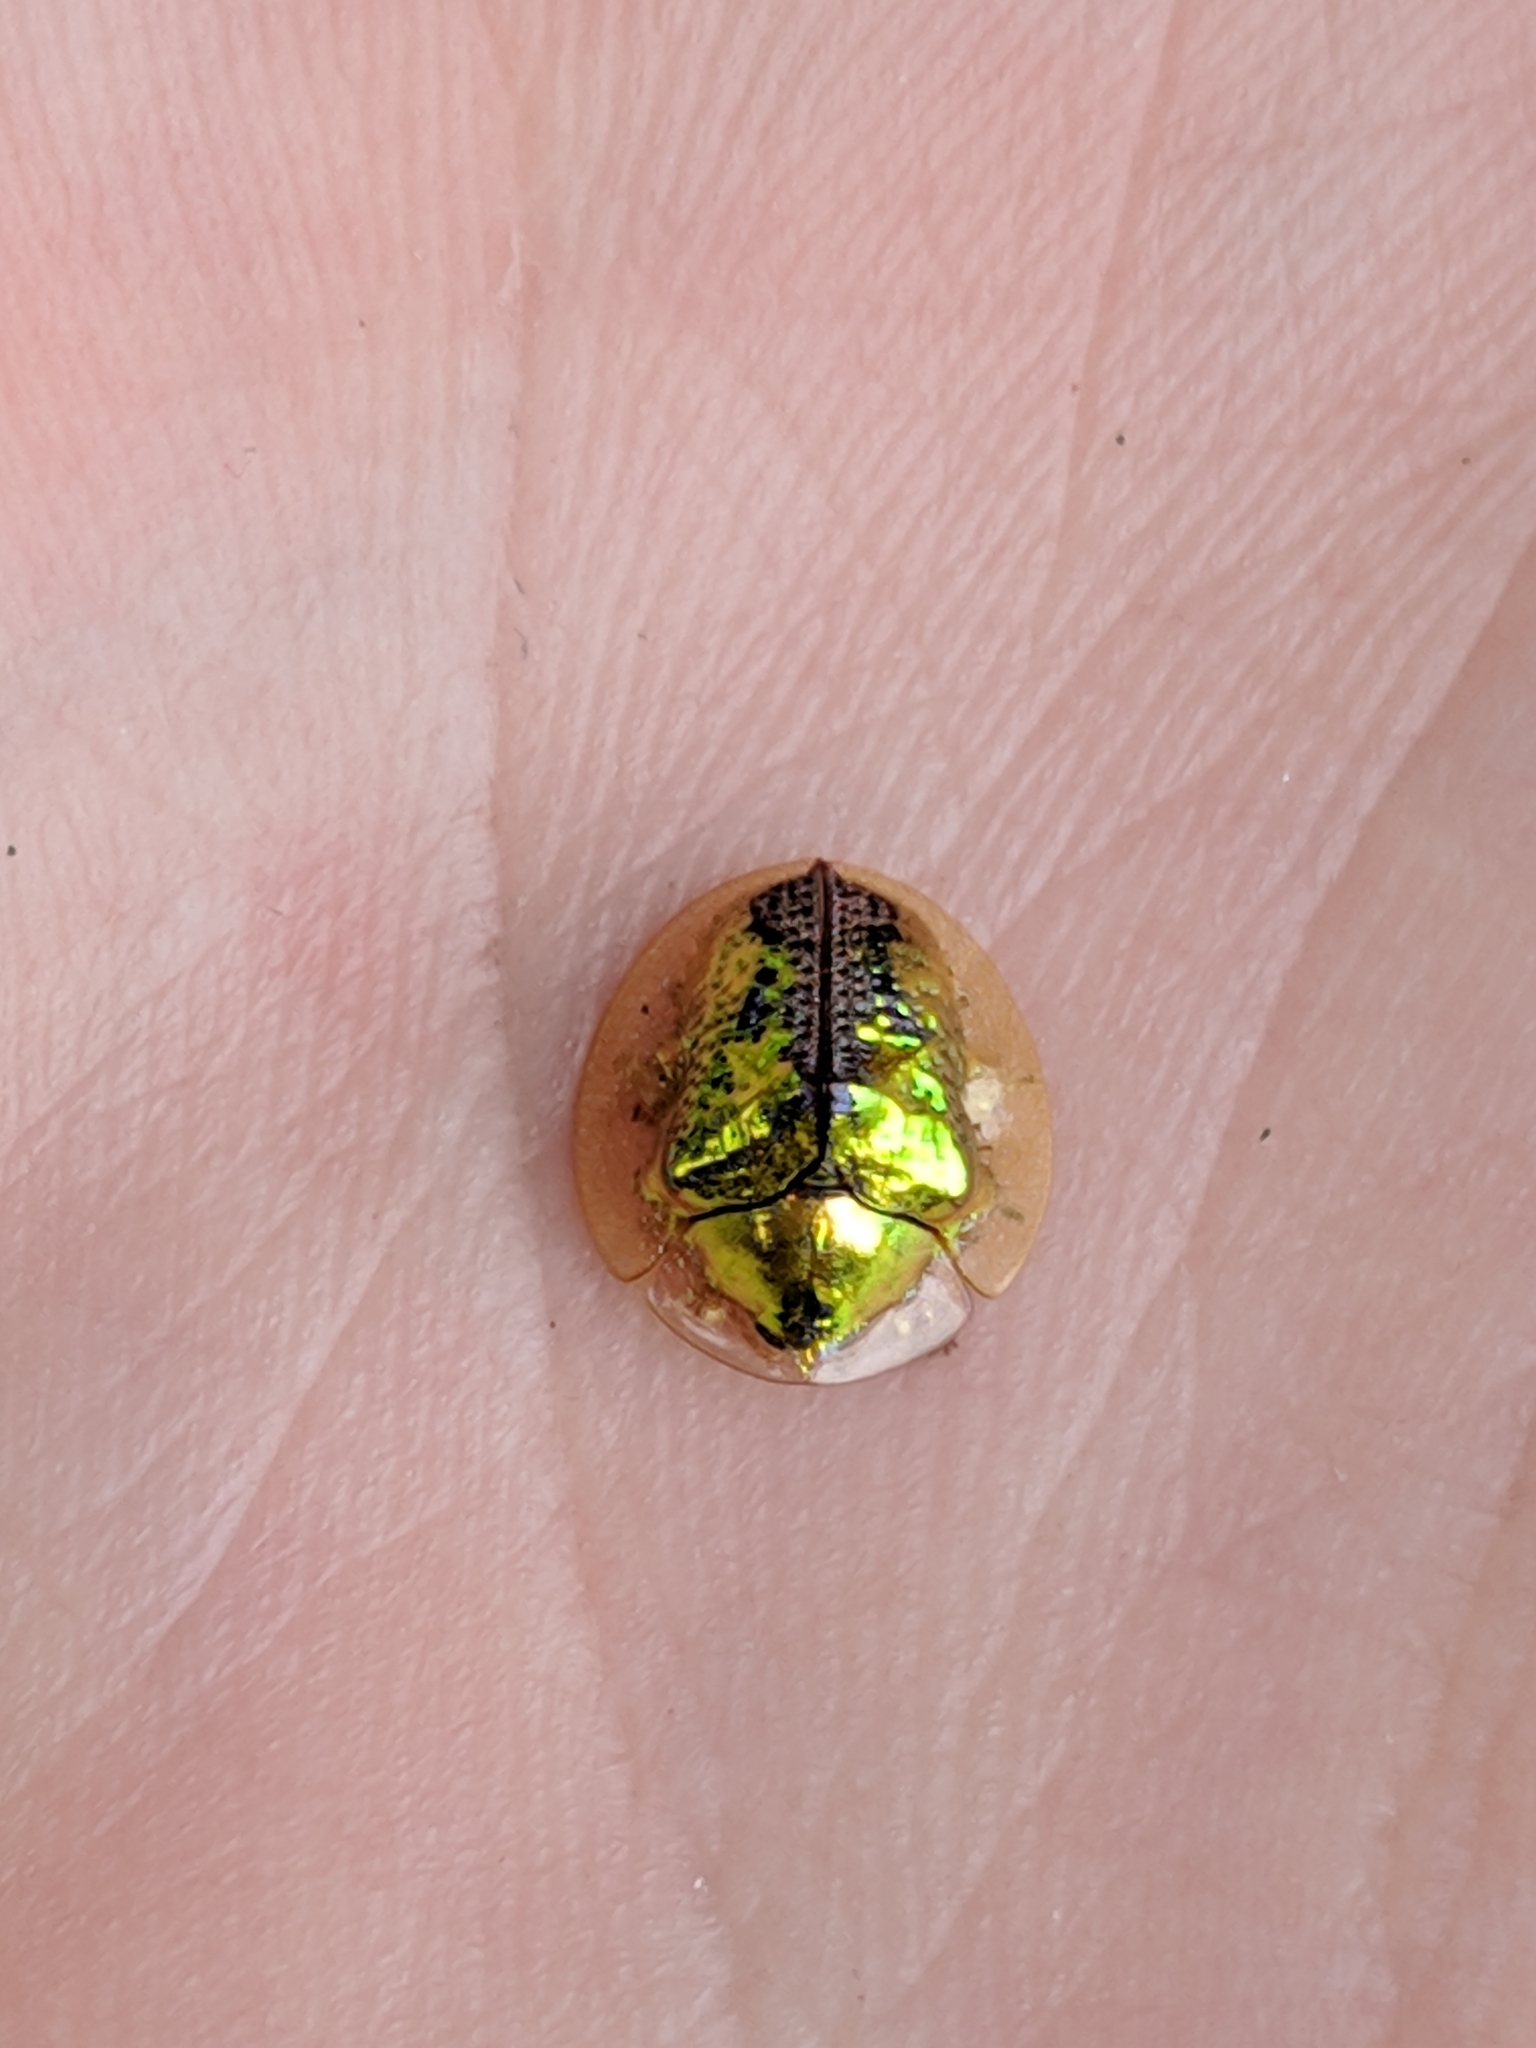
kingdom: Animalia
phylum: Arthropoda
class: Insecta
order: Coleoptera
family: Chrysomelidae
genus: Coptocycla
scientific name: Coptocycla texana
